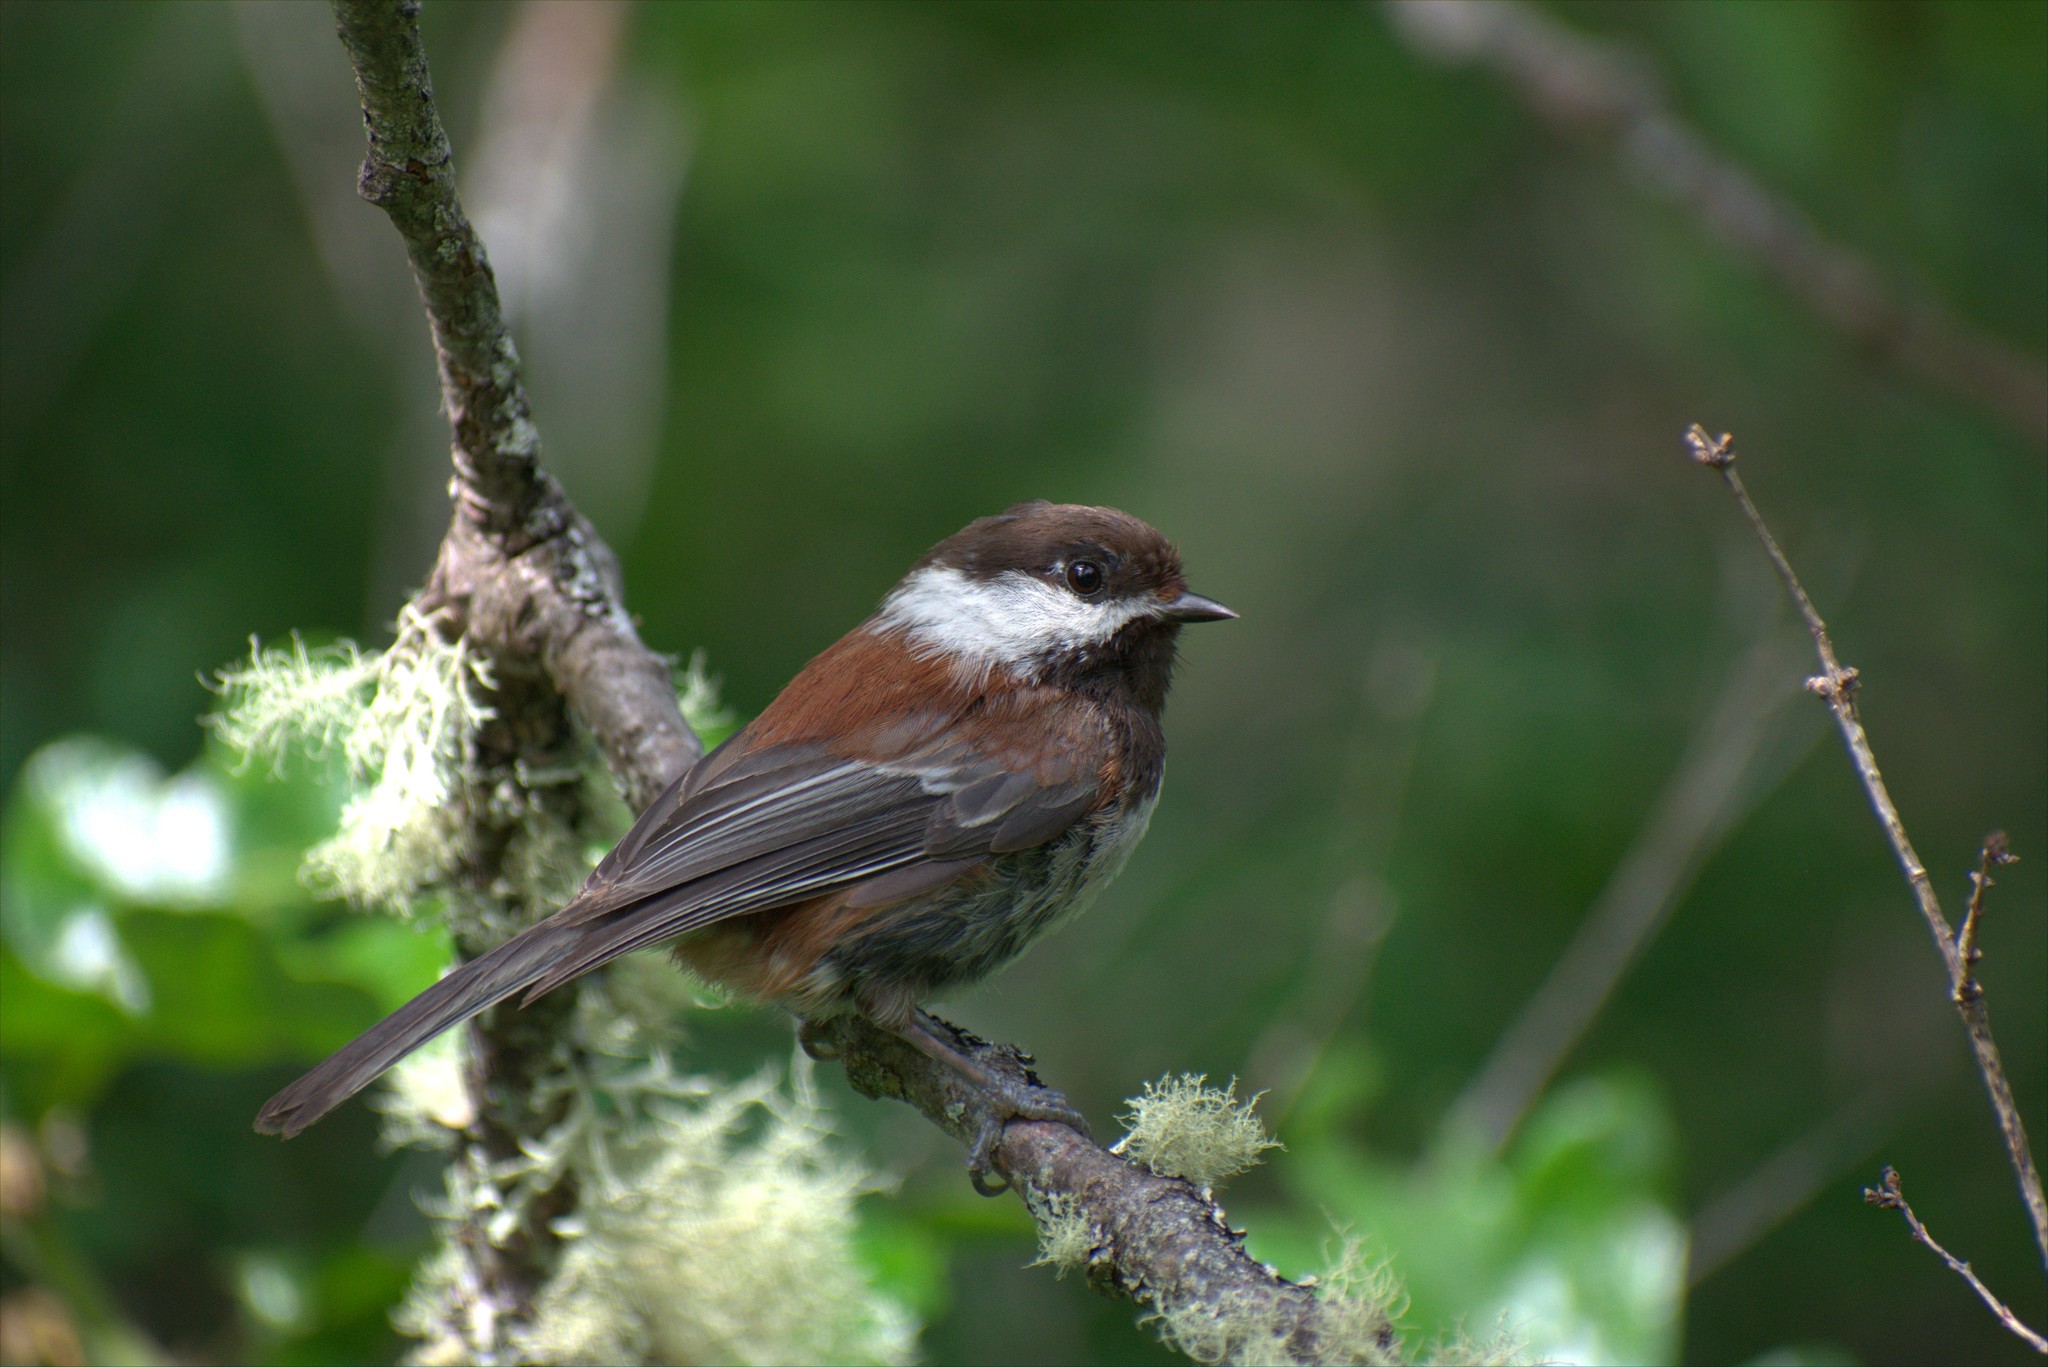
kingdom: Animalia
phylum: Chordata
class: Aves
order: Passeriformes
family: Paridae
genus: Poecile
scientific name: Poecile rufescens
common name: Chestnut-backed chickadee
